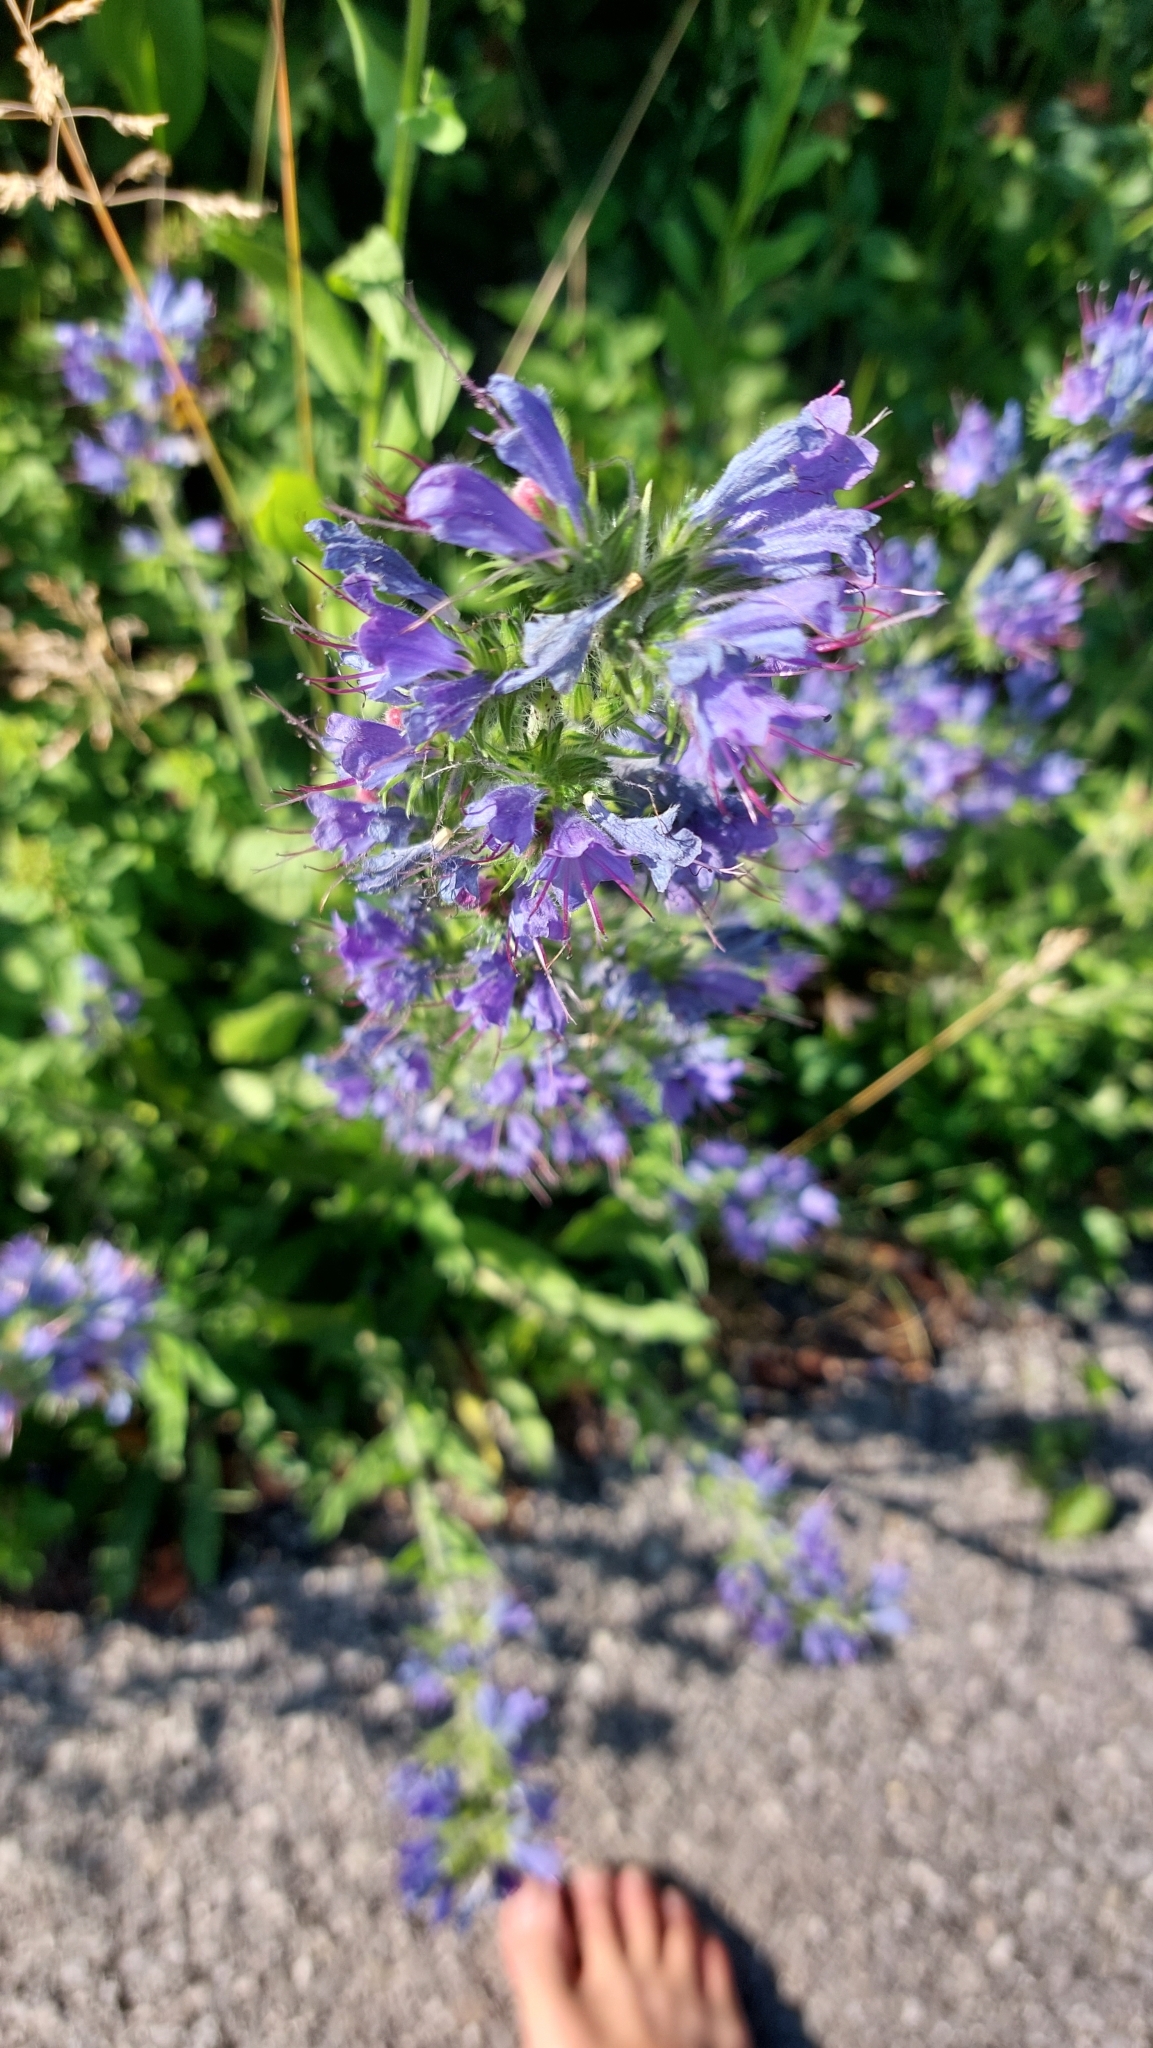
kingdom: Plantae
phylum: Tracheophyta
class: Magnoliopsida
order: Boraginales
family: Boraginaceae
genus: Echium
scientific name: Echium vulgare
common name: Common viper's bugloss
